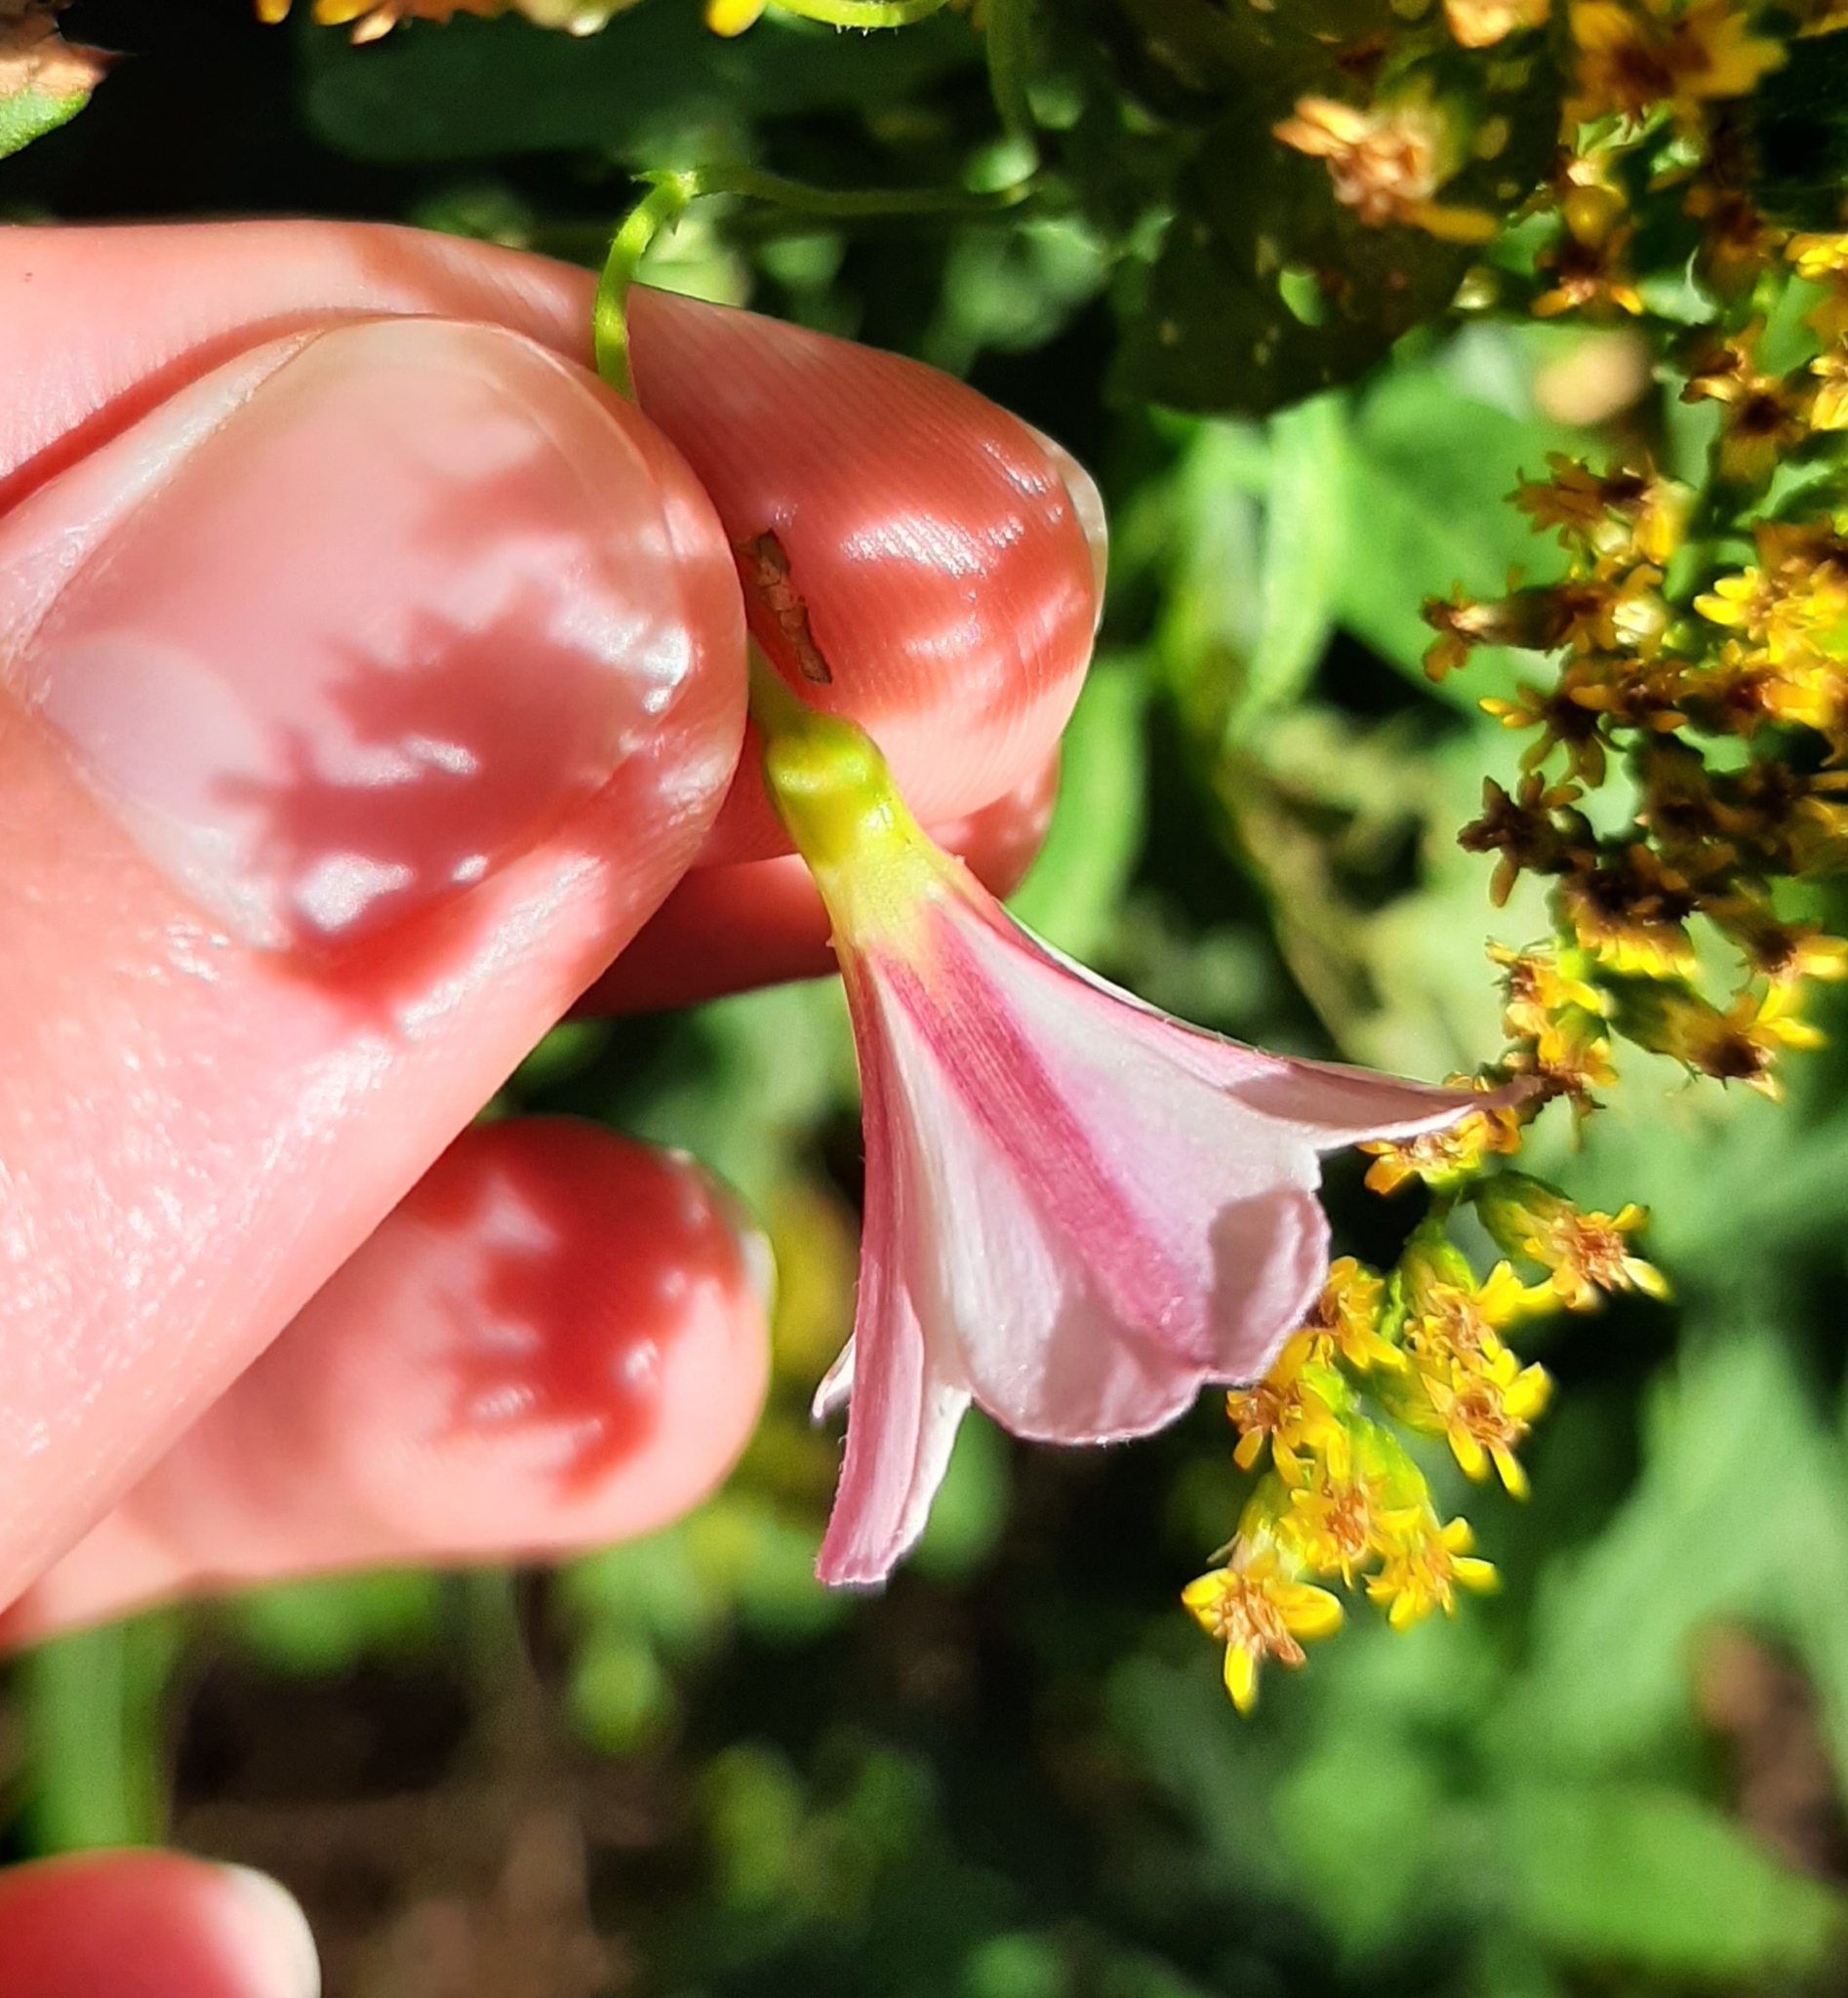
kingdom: Plantae
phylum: Tracheophyta
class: Magnoliopsida
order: Solanales
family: Convolvulaceae
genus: Convolvulus
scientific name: Convolvulus arvensis
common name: Field bindweed
